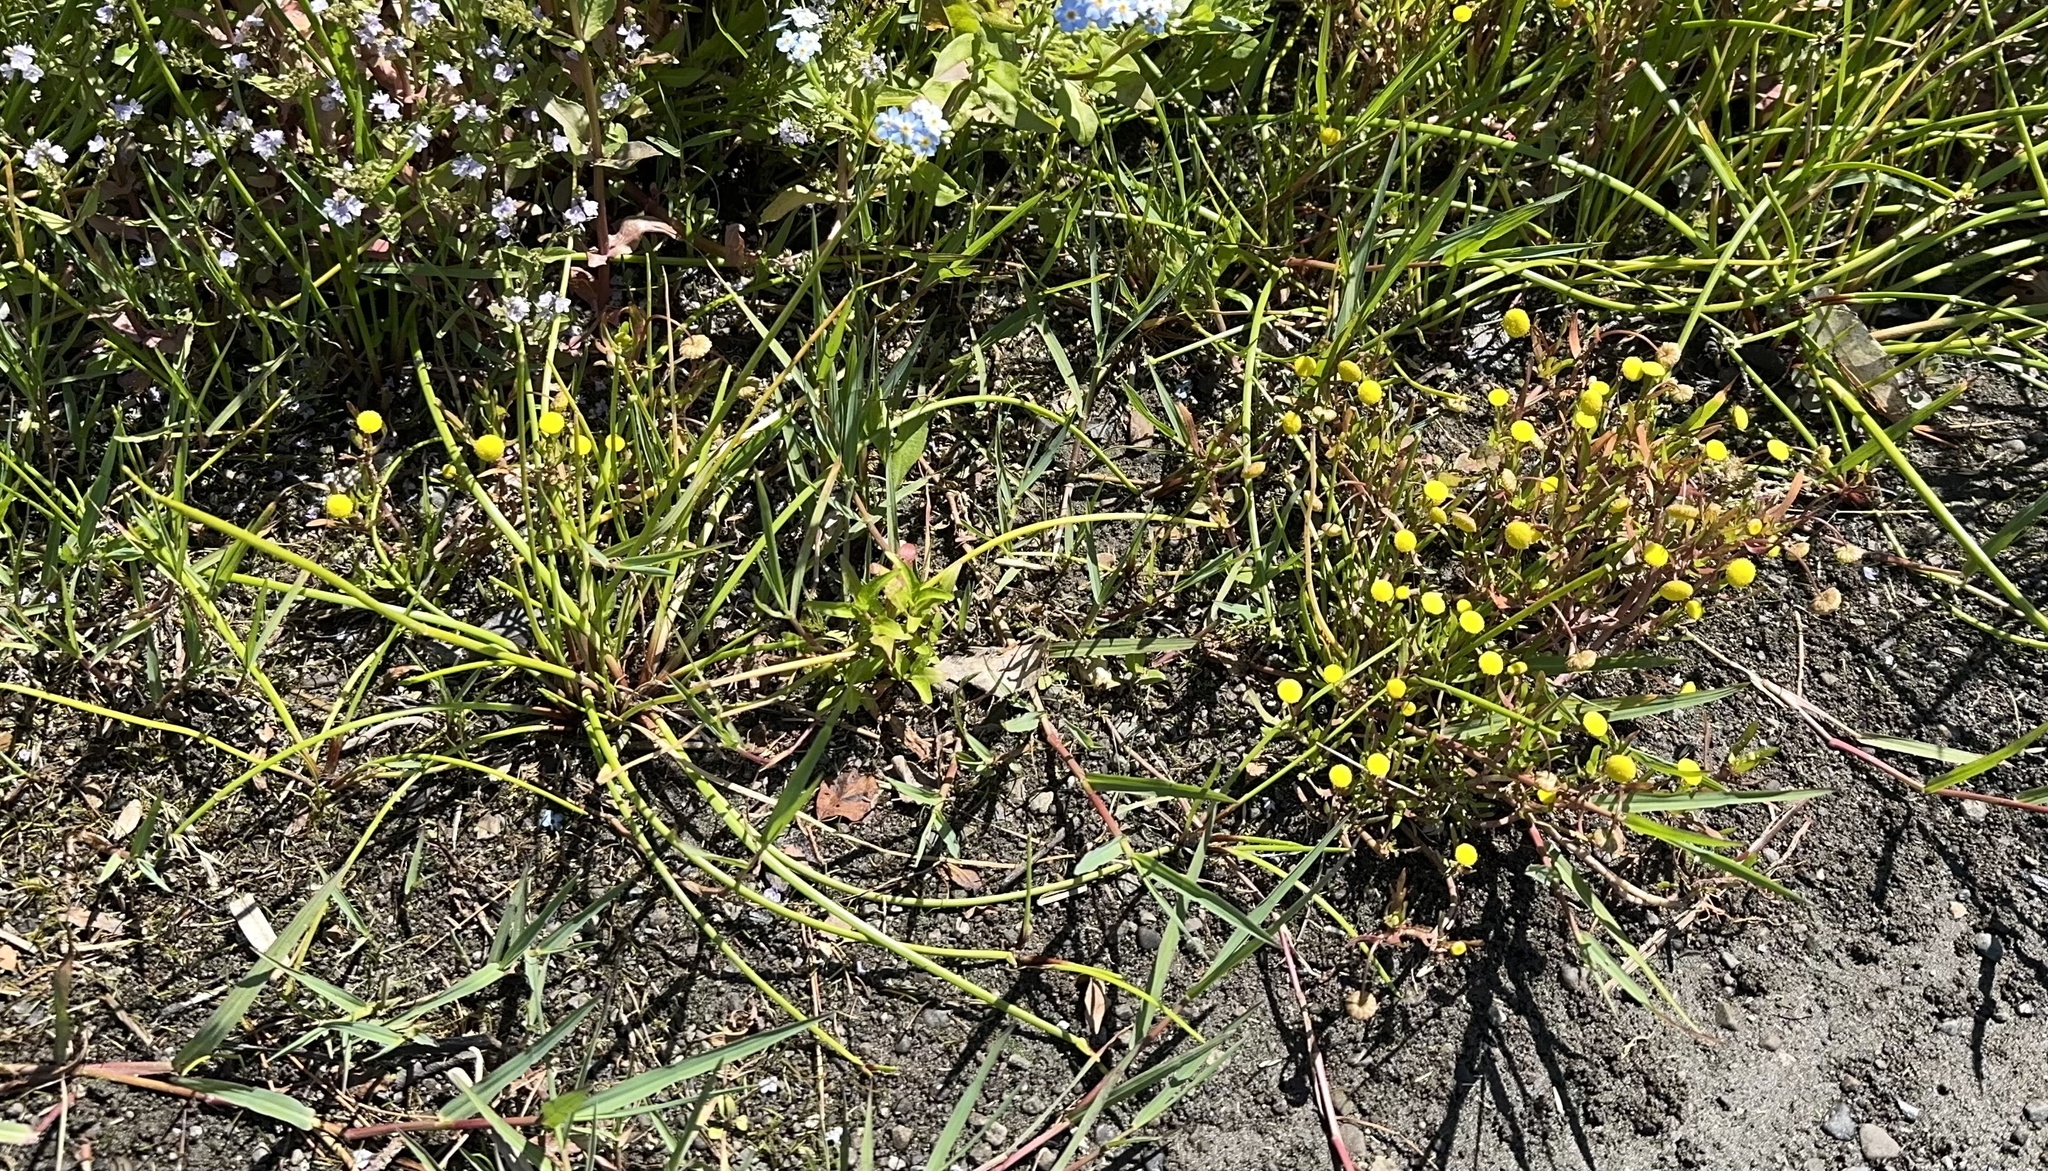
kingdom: Plantae
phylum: Tracheophyta
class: Magnoliopsida
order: Asterales
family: Asteraceae
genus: Cotula
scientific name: Cotula coronopifolia
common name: Buttonweed
